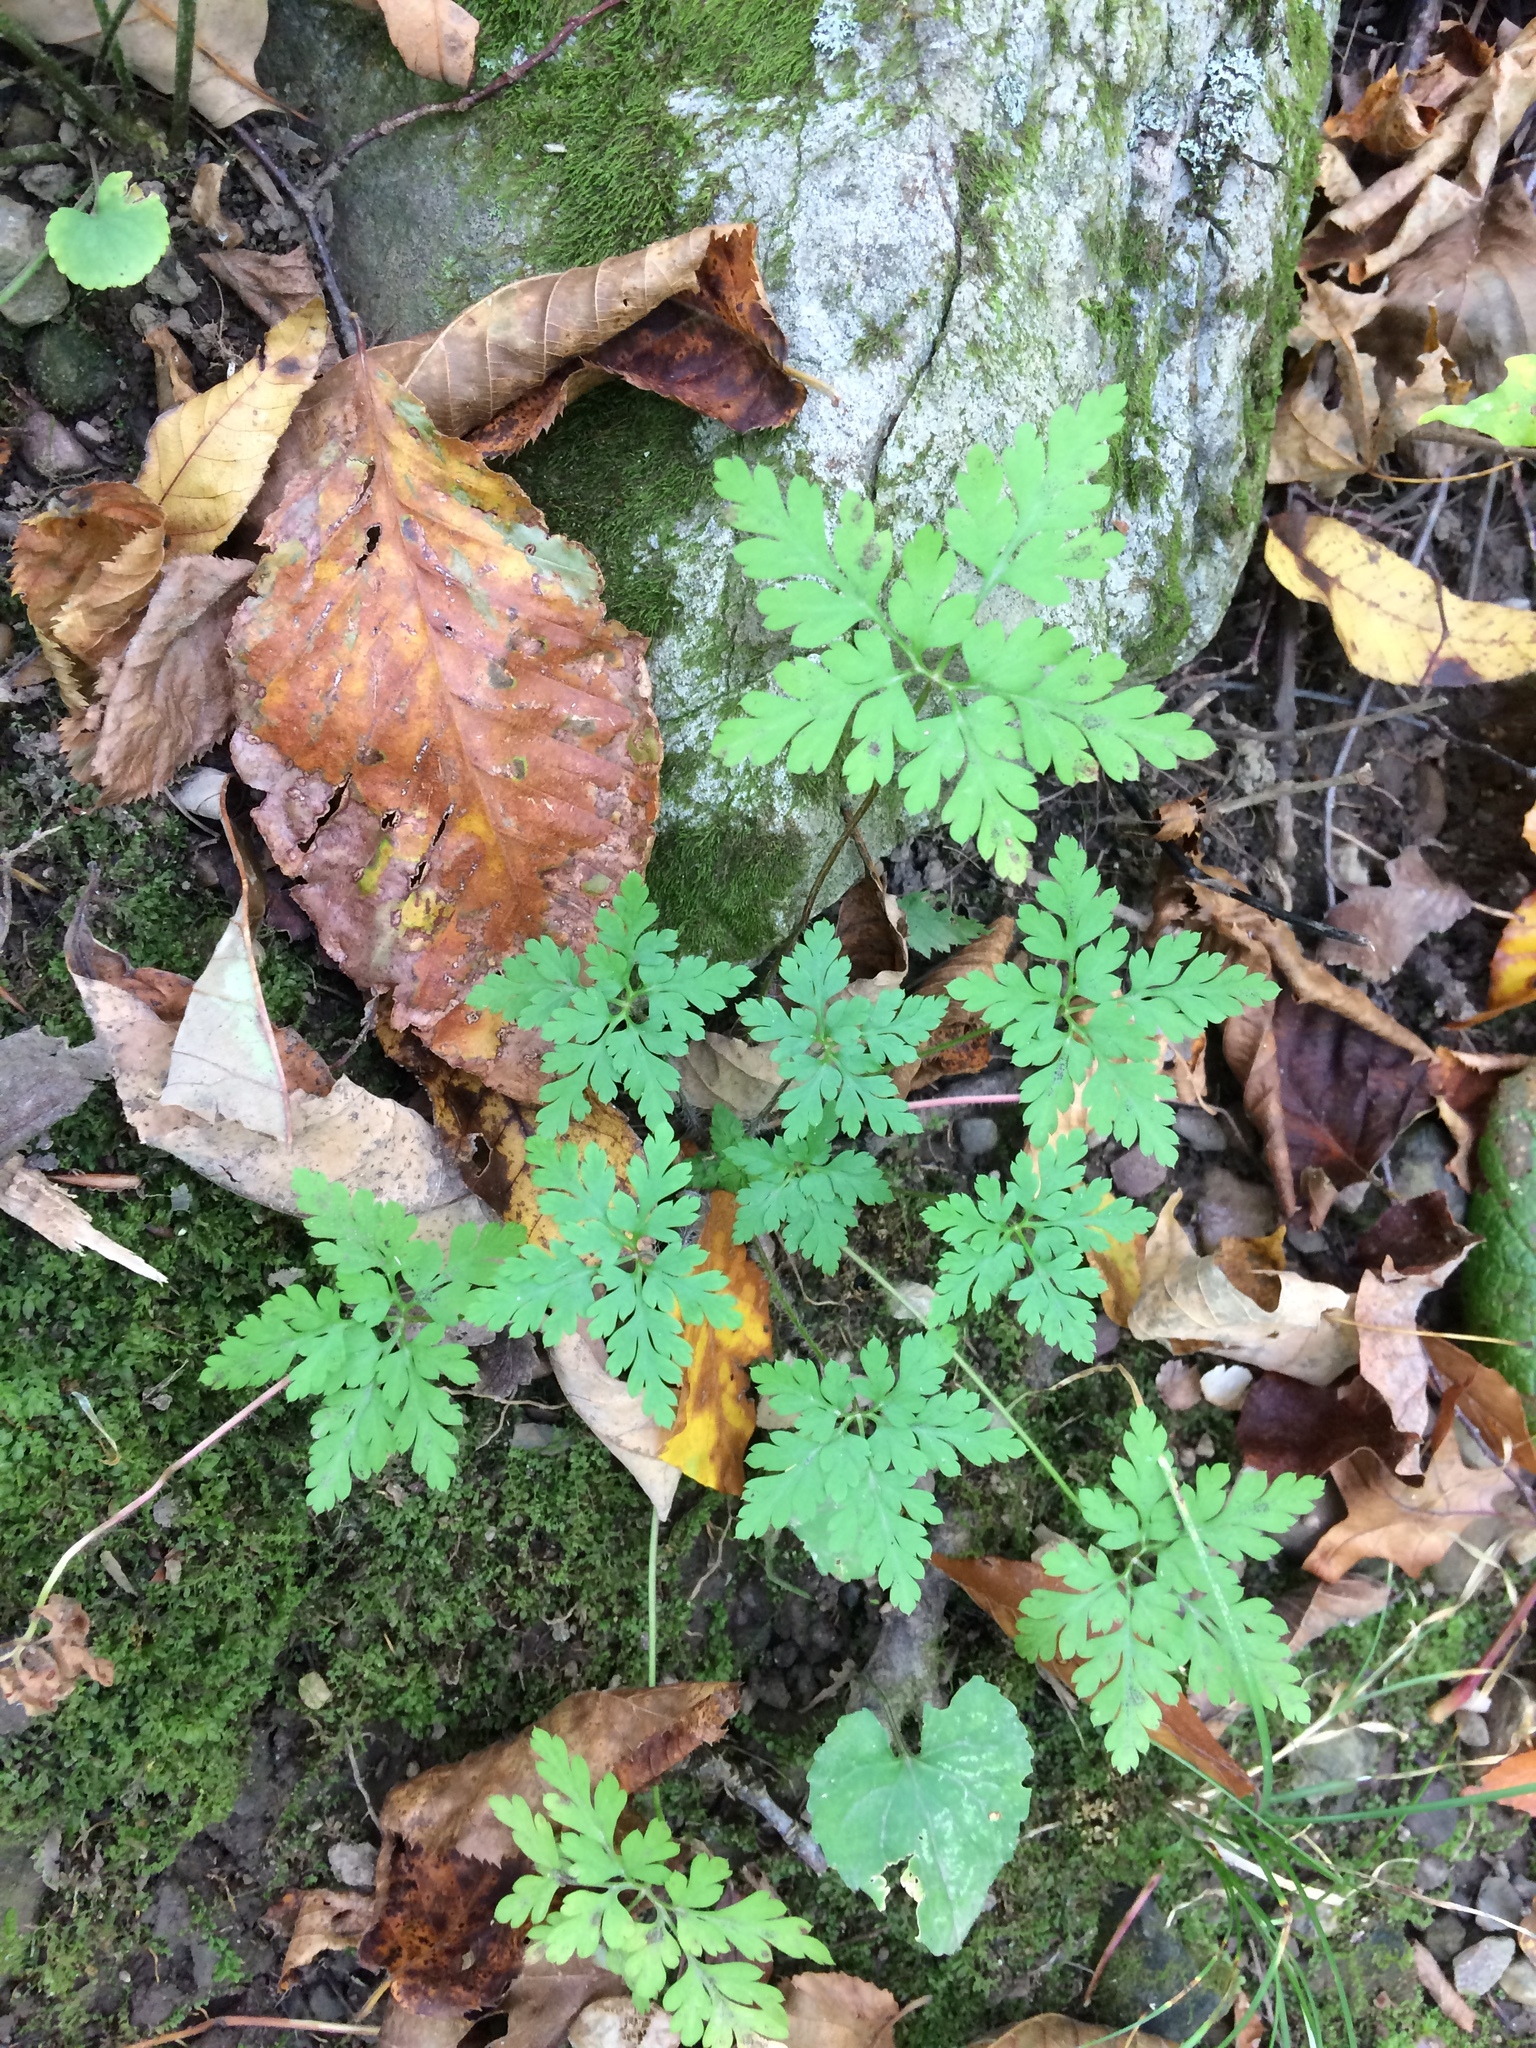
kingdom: Plantae
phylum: Tracheophyta
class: Magnoliopsida
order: Geraniales
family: Geraniaceae
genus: Geranium
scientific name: Geranium robertianum
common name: Herb-robert
